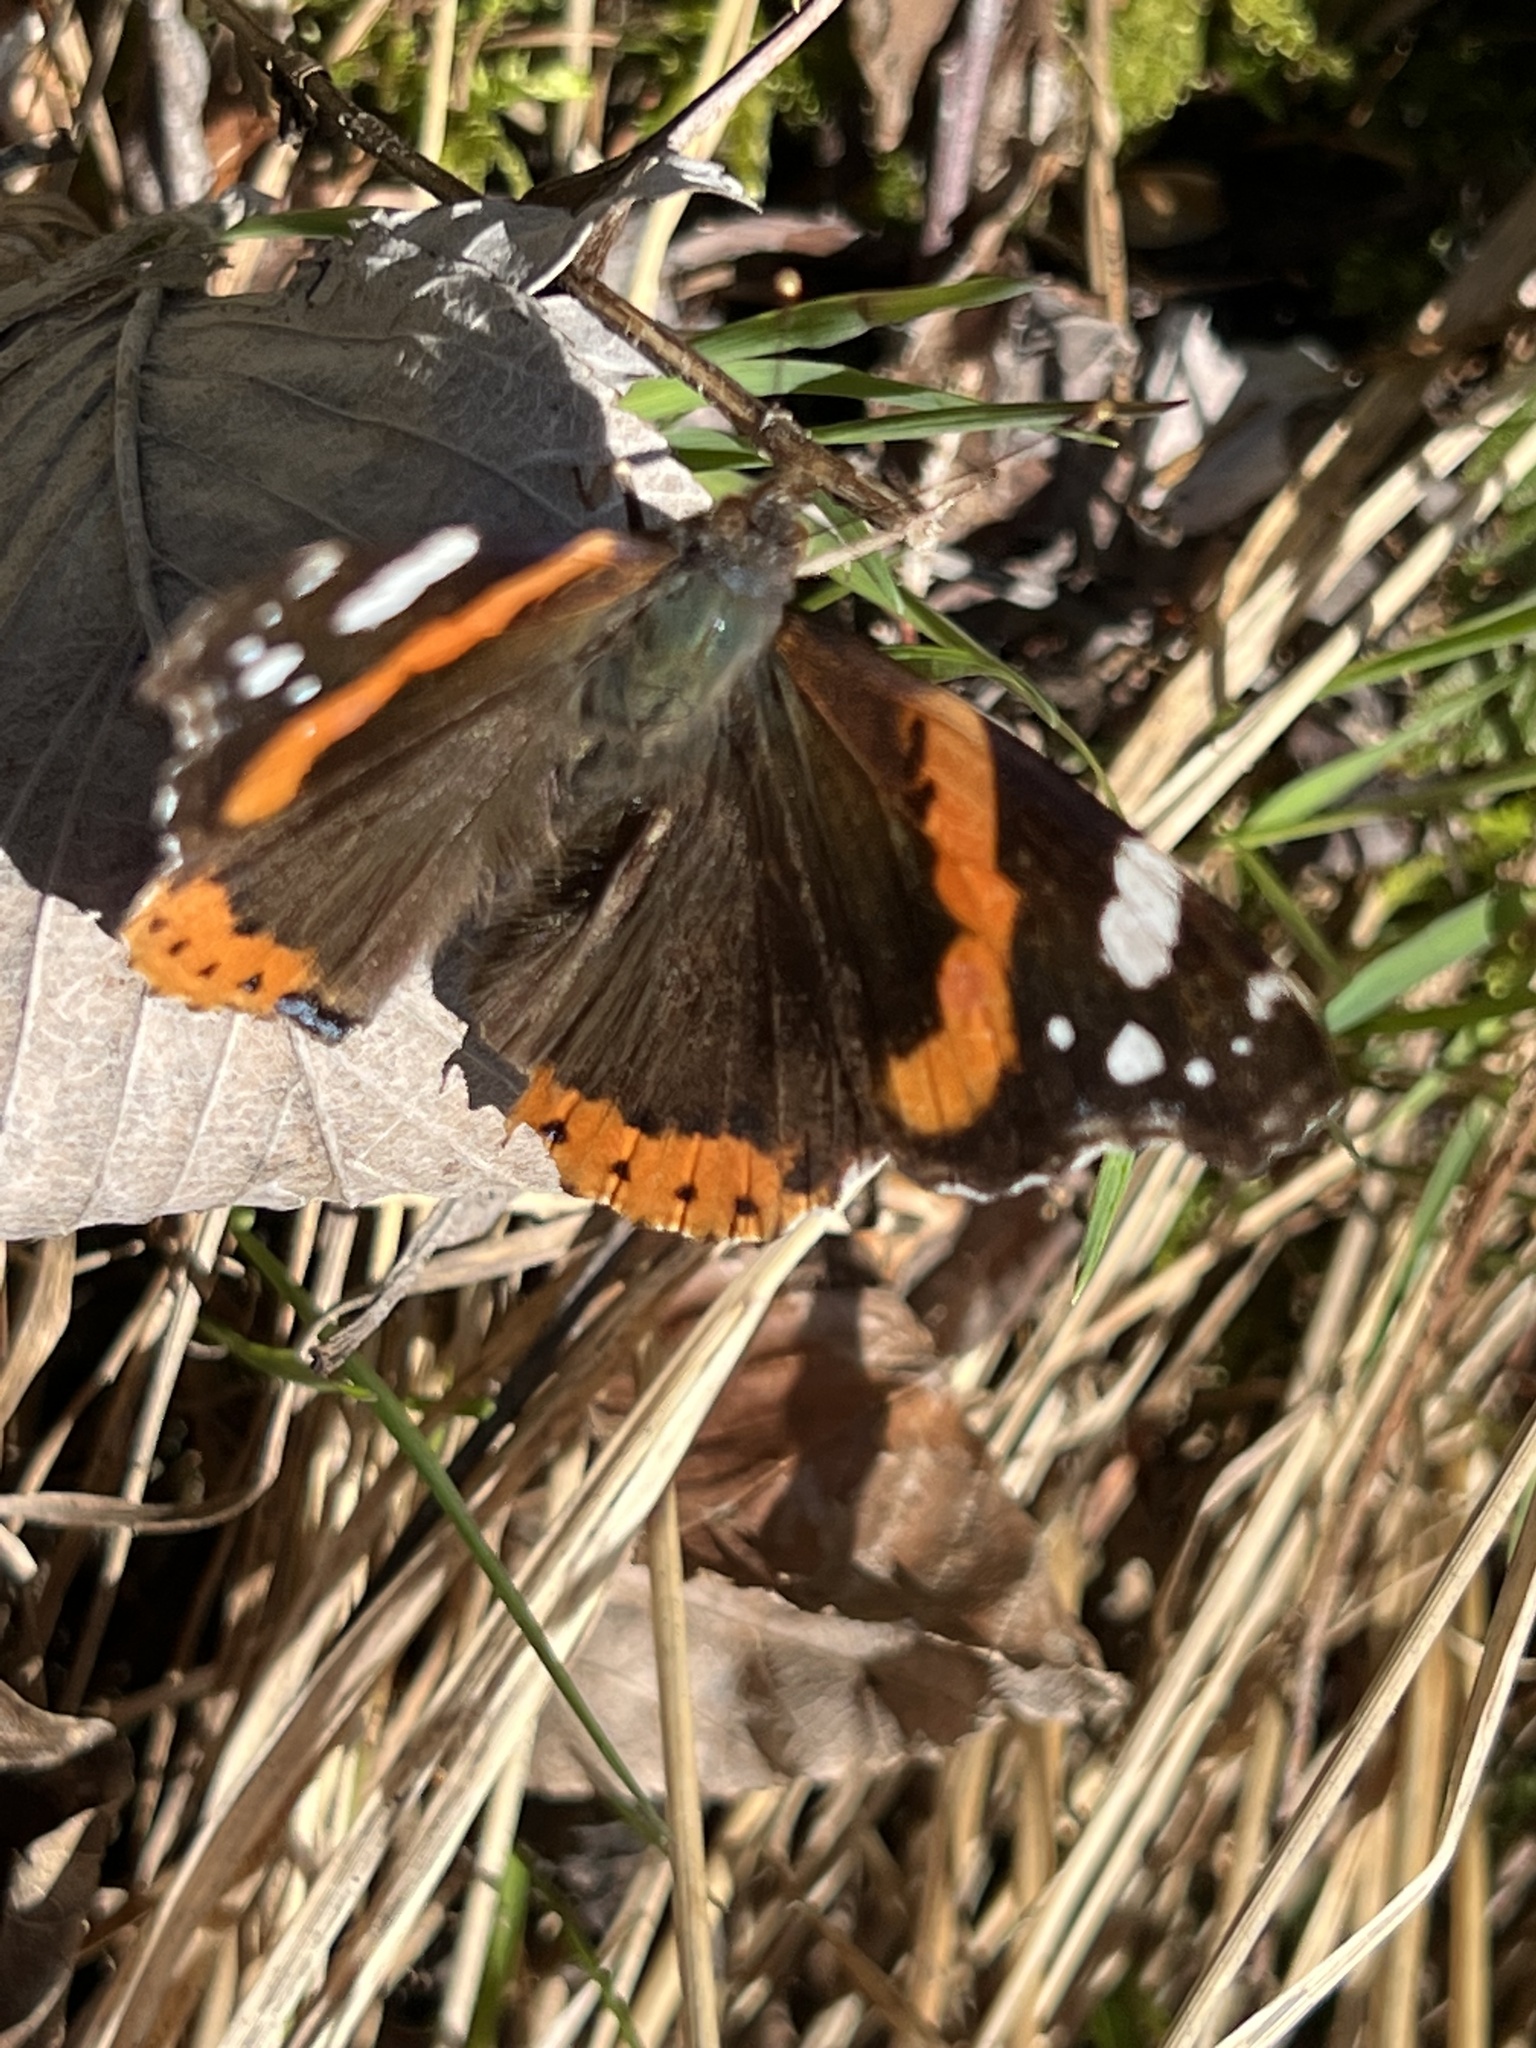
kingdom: Animalia
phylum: Arthropoda
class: Insecta
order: Lepidoptera
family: Nymphalidae
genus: Vanessa
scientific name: Vanessa atalanta
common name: Red admiral
